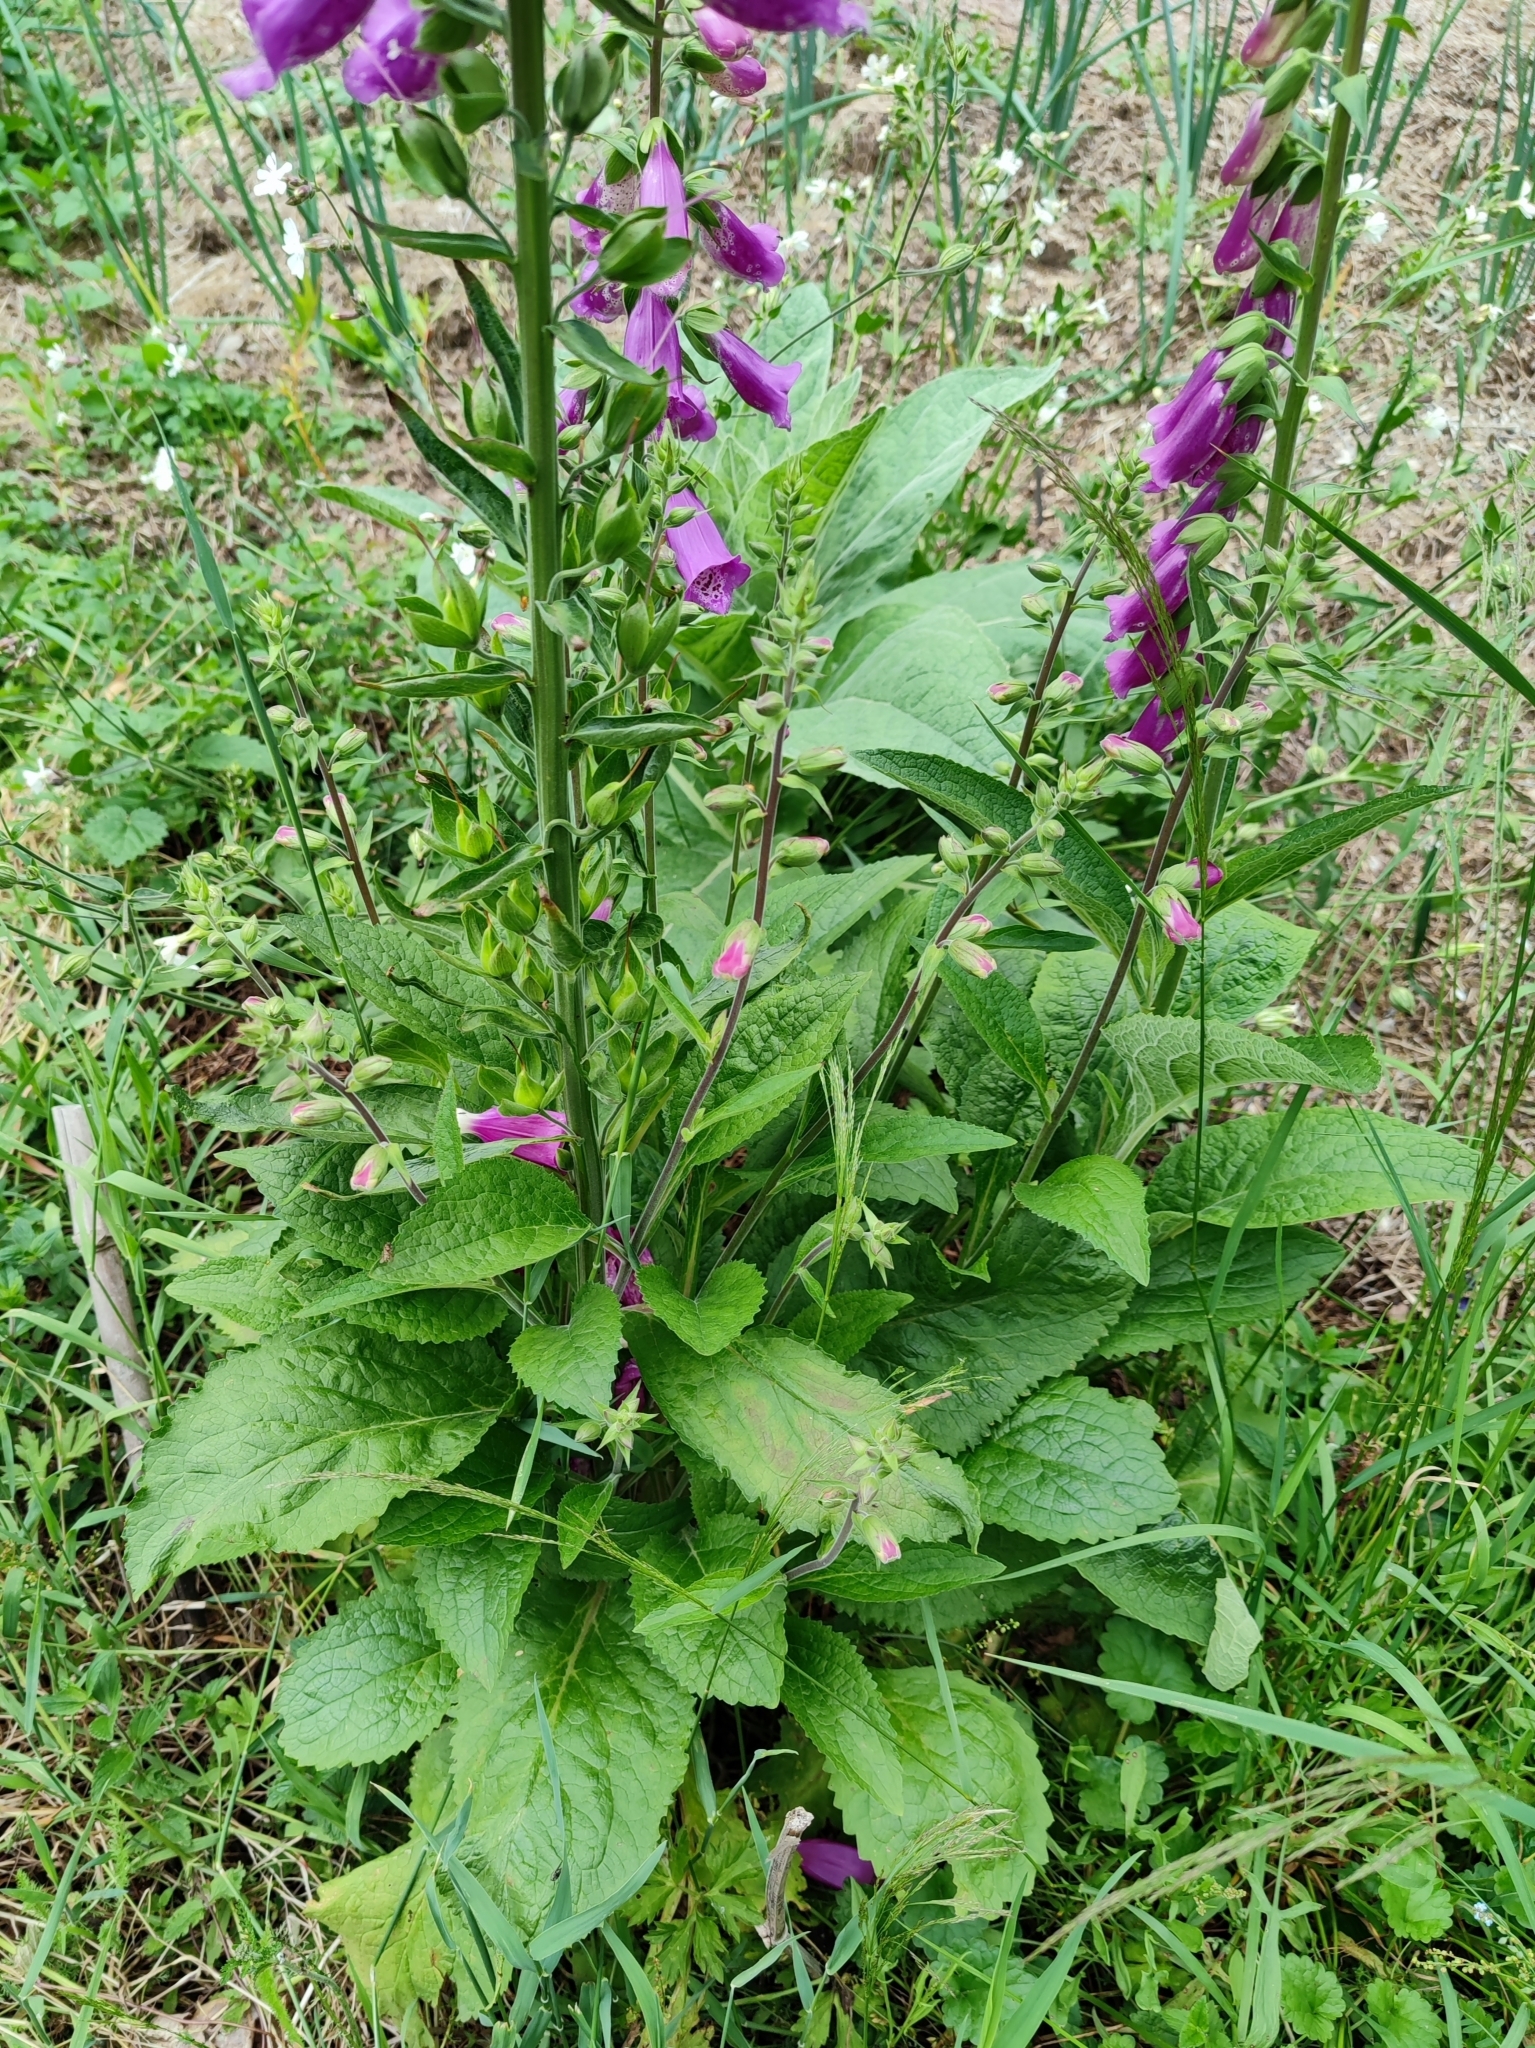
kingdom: Plantae
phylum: Tracheophyta
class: Magnoliopsida
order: Lamiales
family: Plantaginaceae
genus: Digitalis
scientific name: Digitalis purpurea
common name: Foxglove
